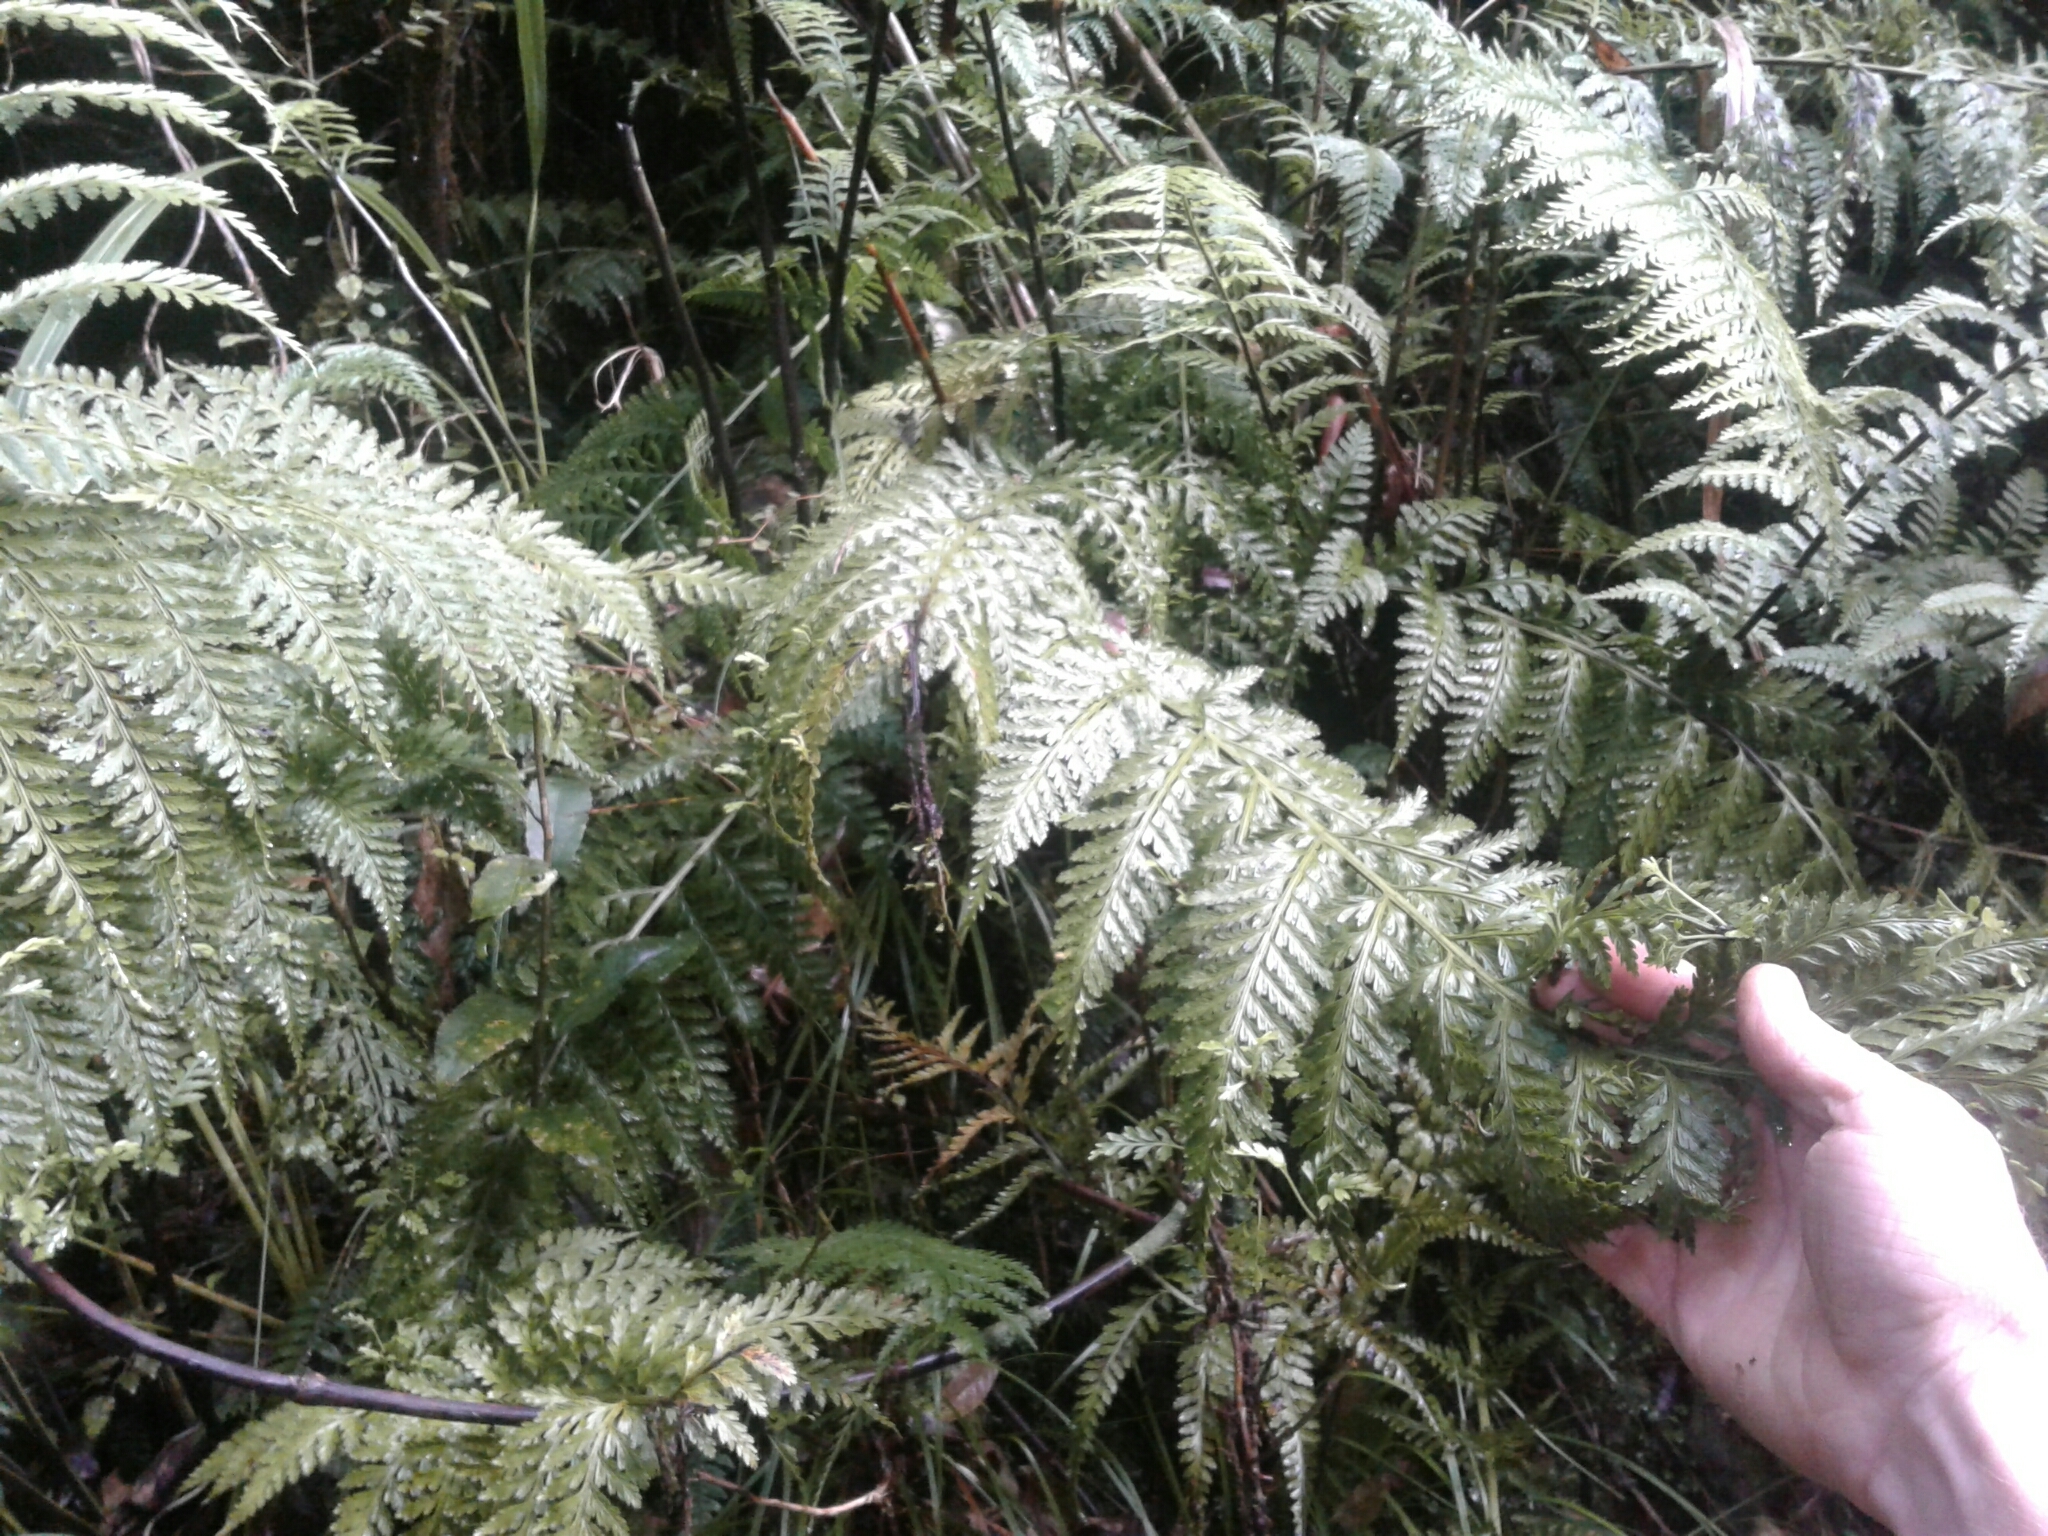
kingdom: Plantae
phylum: Tracheophyta
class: Polypodiopsida
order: Polypodiales
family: Aspleniaceae
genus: Asplenium
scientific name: Asplenium bulbiferum
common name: Mother fern
